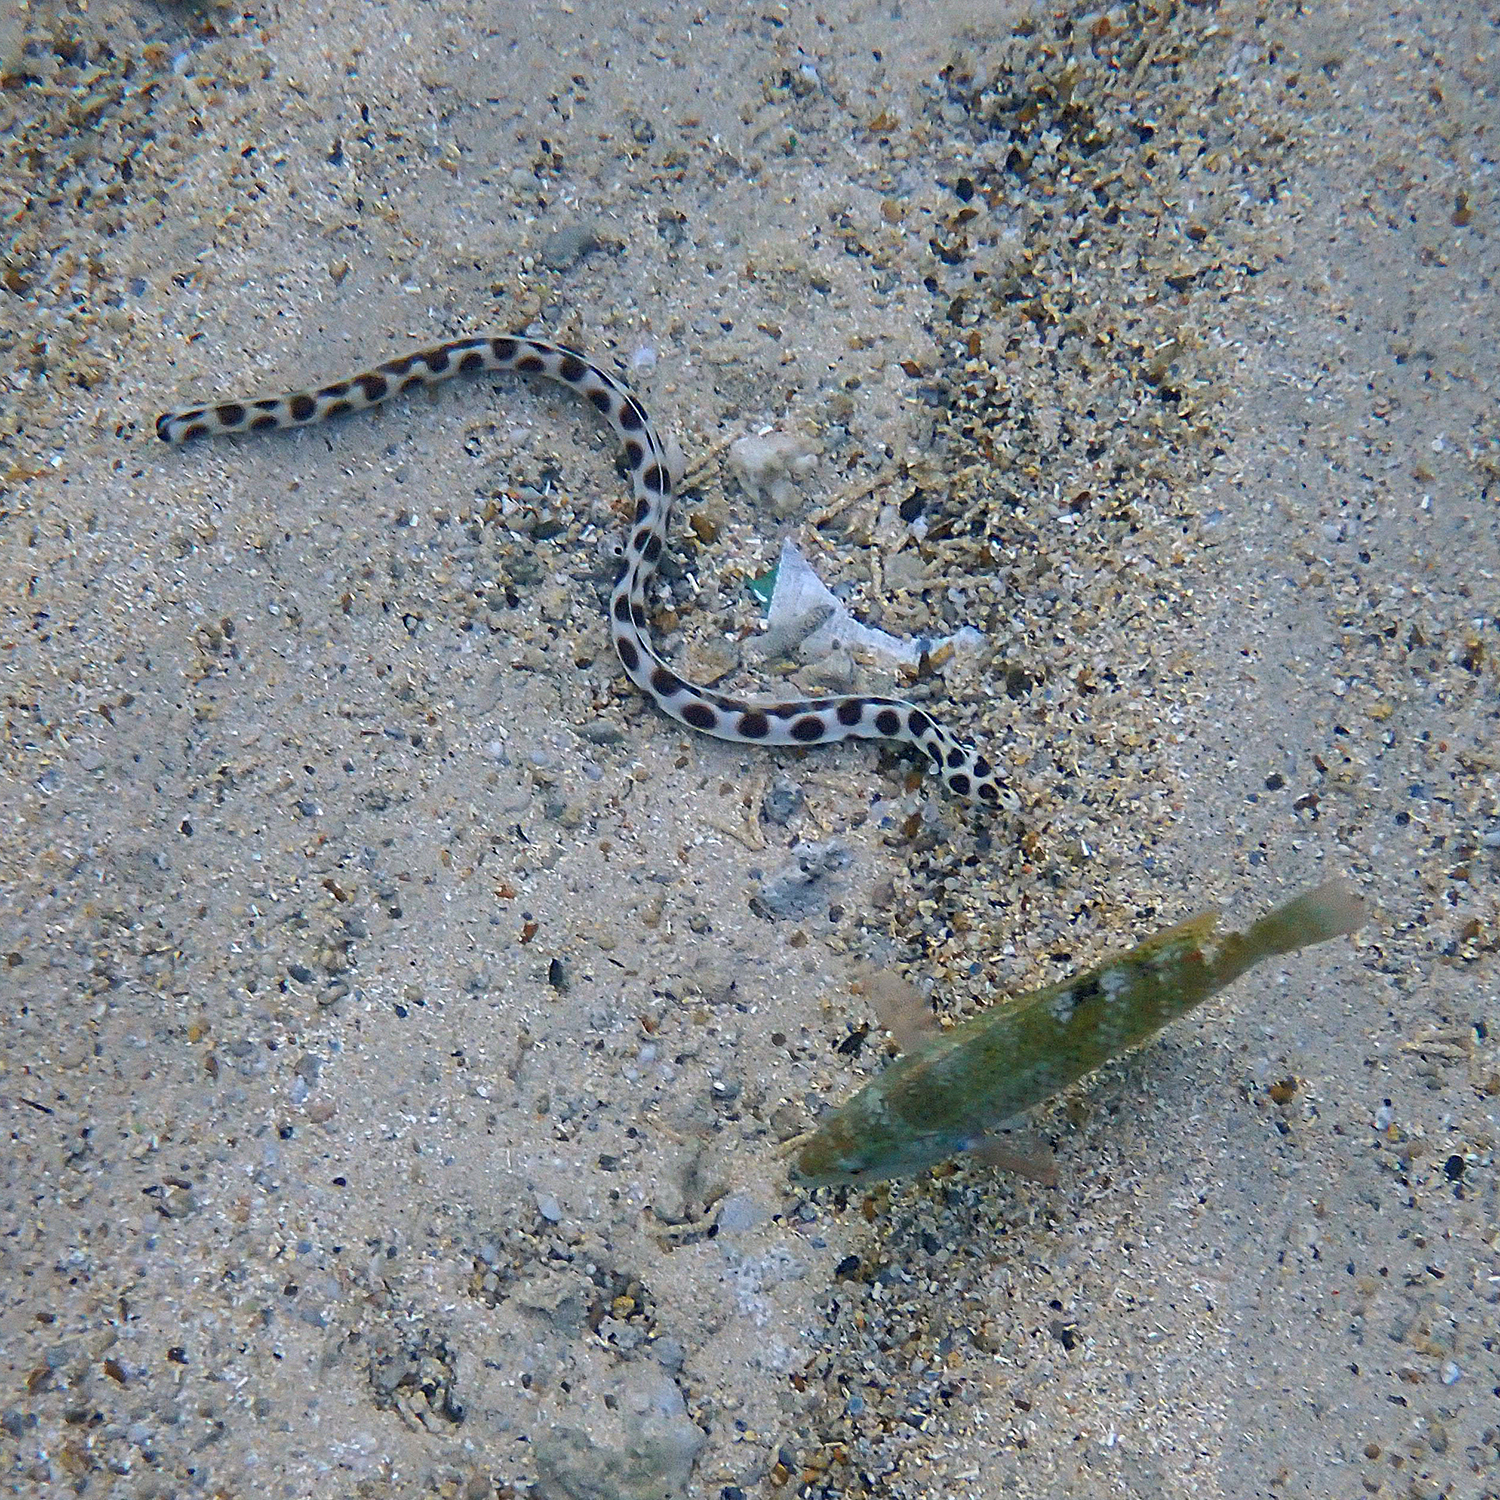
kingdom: Animalia
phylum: Chordata
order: Anguilliformes
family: Ophichthidae
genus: Myrichthys
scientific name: Myrichthys maculosus
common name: Spotted snake eel
